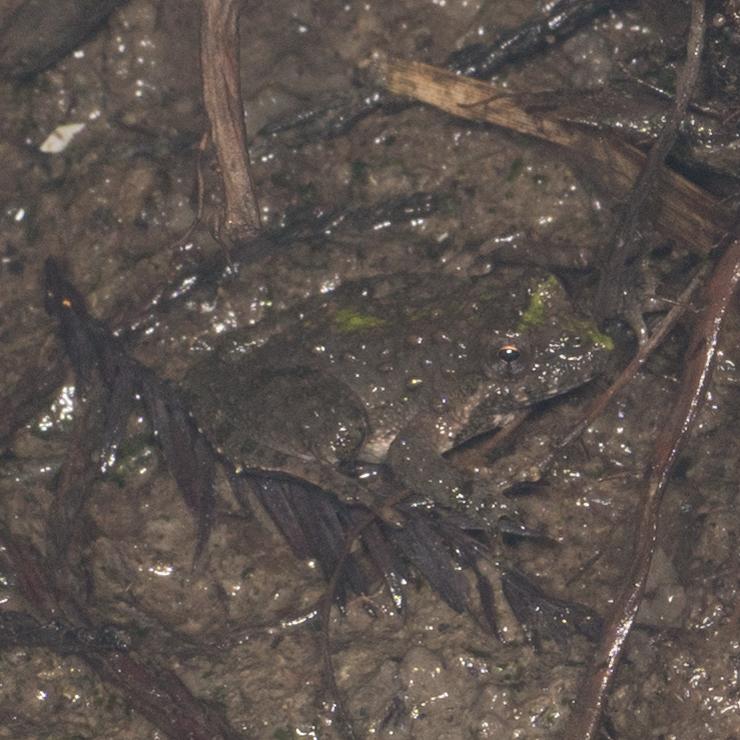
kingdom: Animalia
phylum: Chordata
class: Amphibia
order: Anura
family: Hylidae
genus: Acris
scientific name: Acris blanchardi
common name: Blanchard's cricket frog
